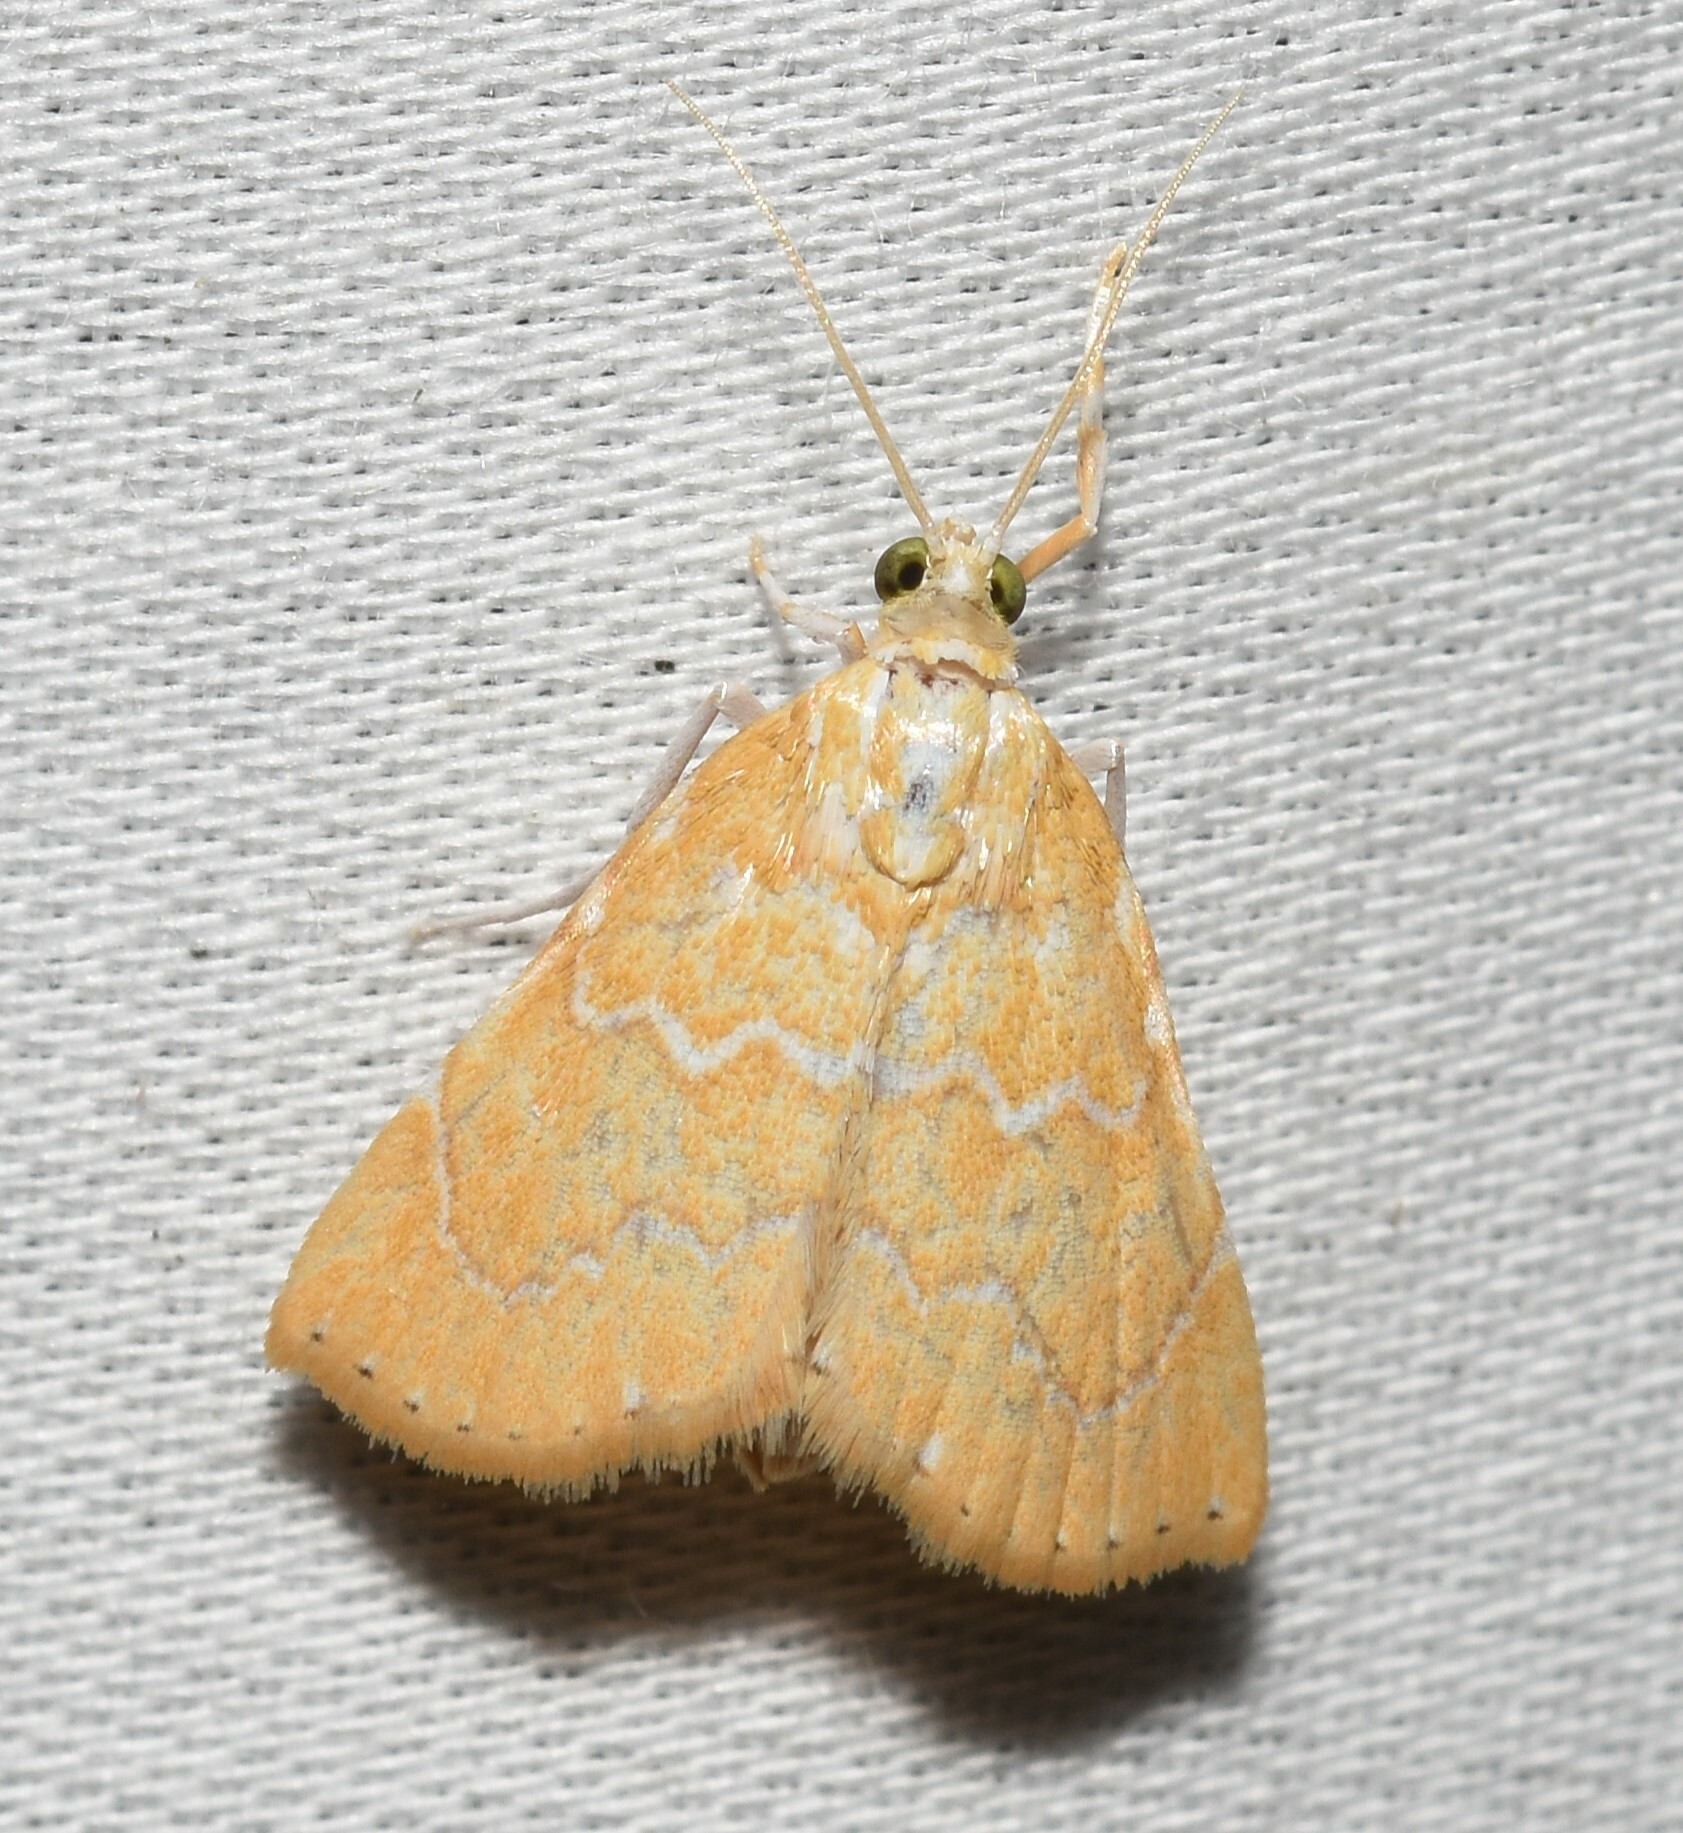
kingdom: Animalia
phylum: Arthropoda
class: Insecta
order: Lepidoptera
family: Crambidae
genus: Glaphyria
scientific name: Glaphyria sesquistrialis
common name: White-roped glaphyria
